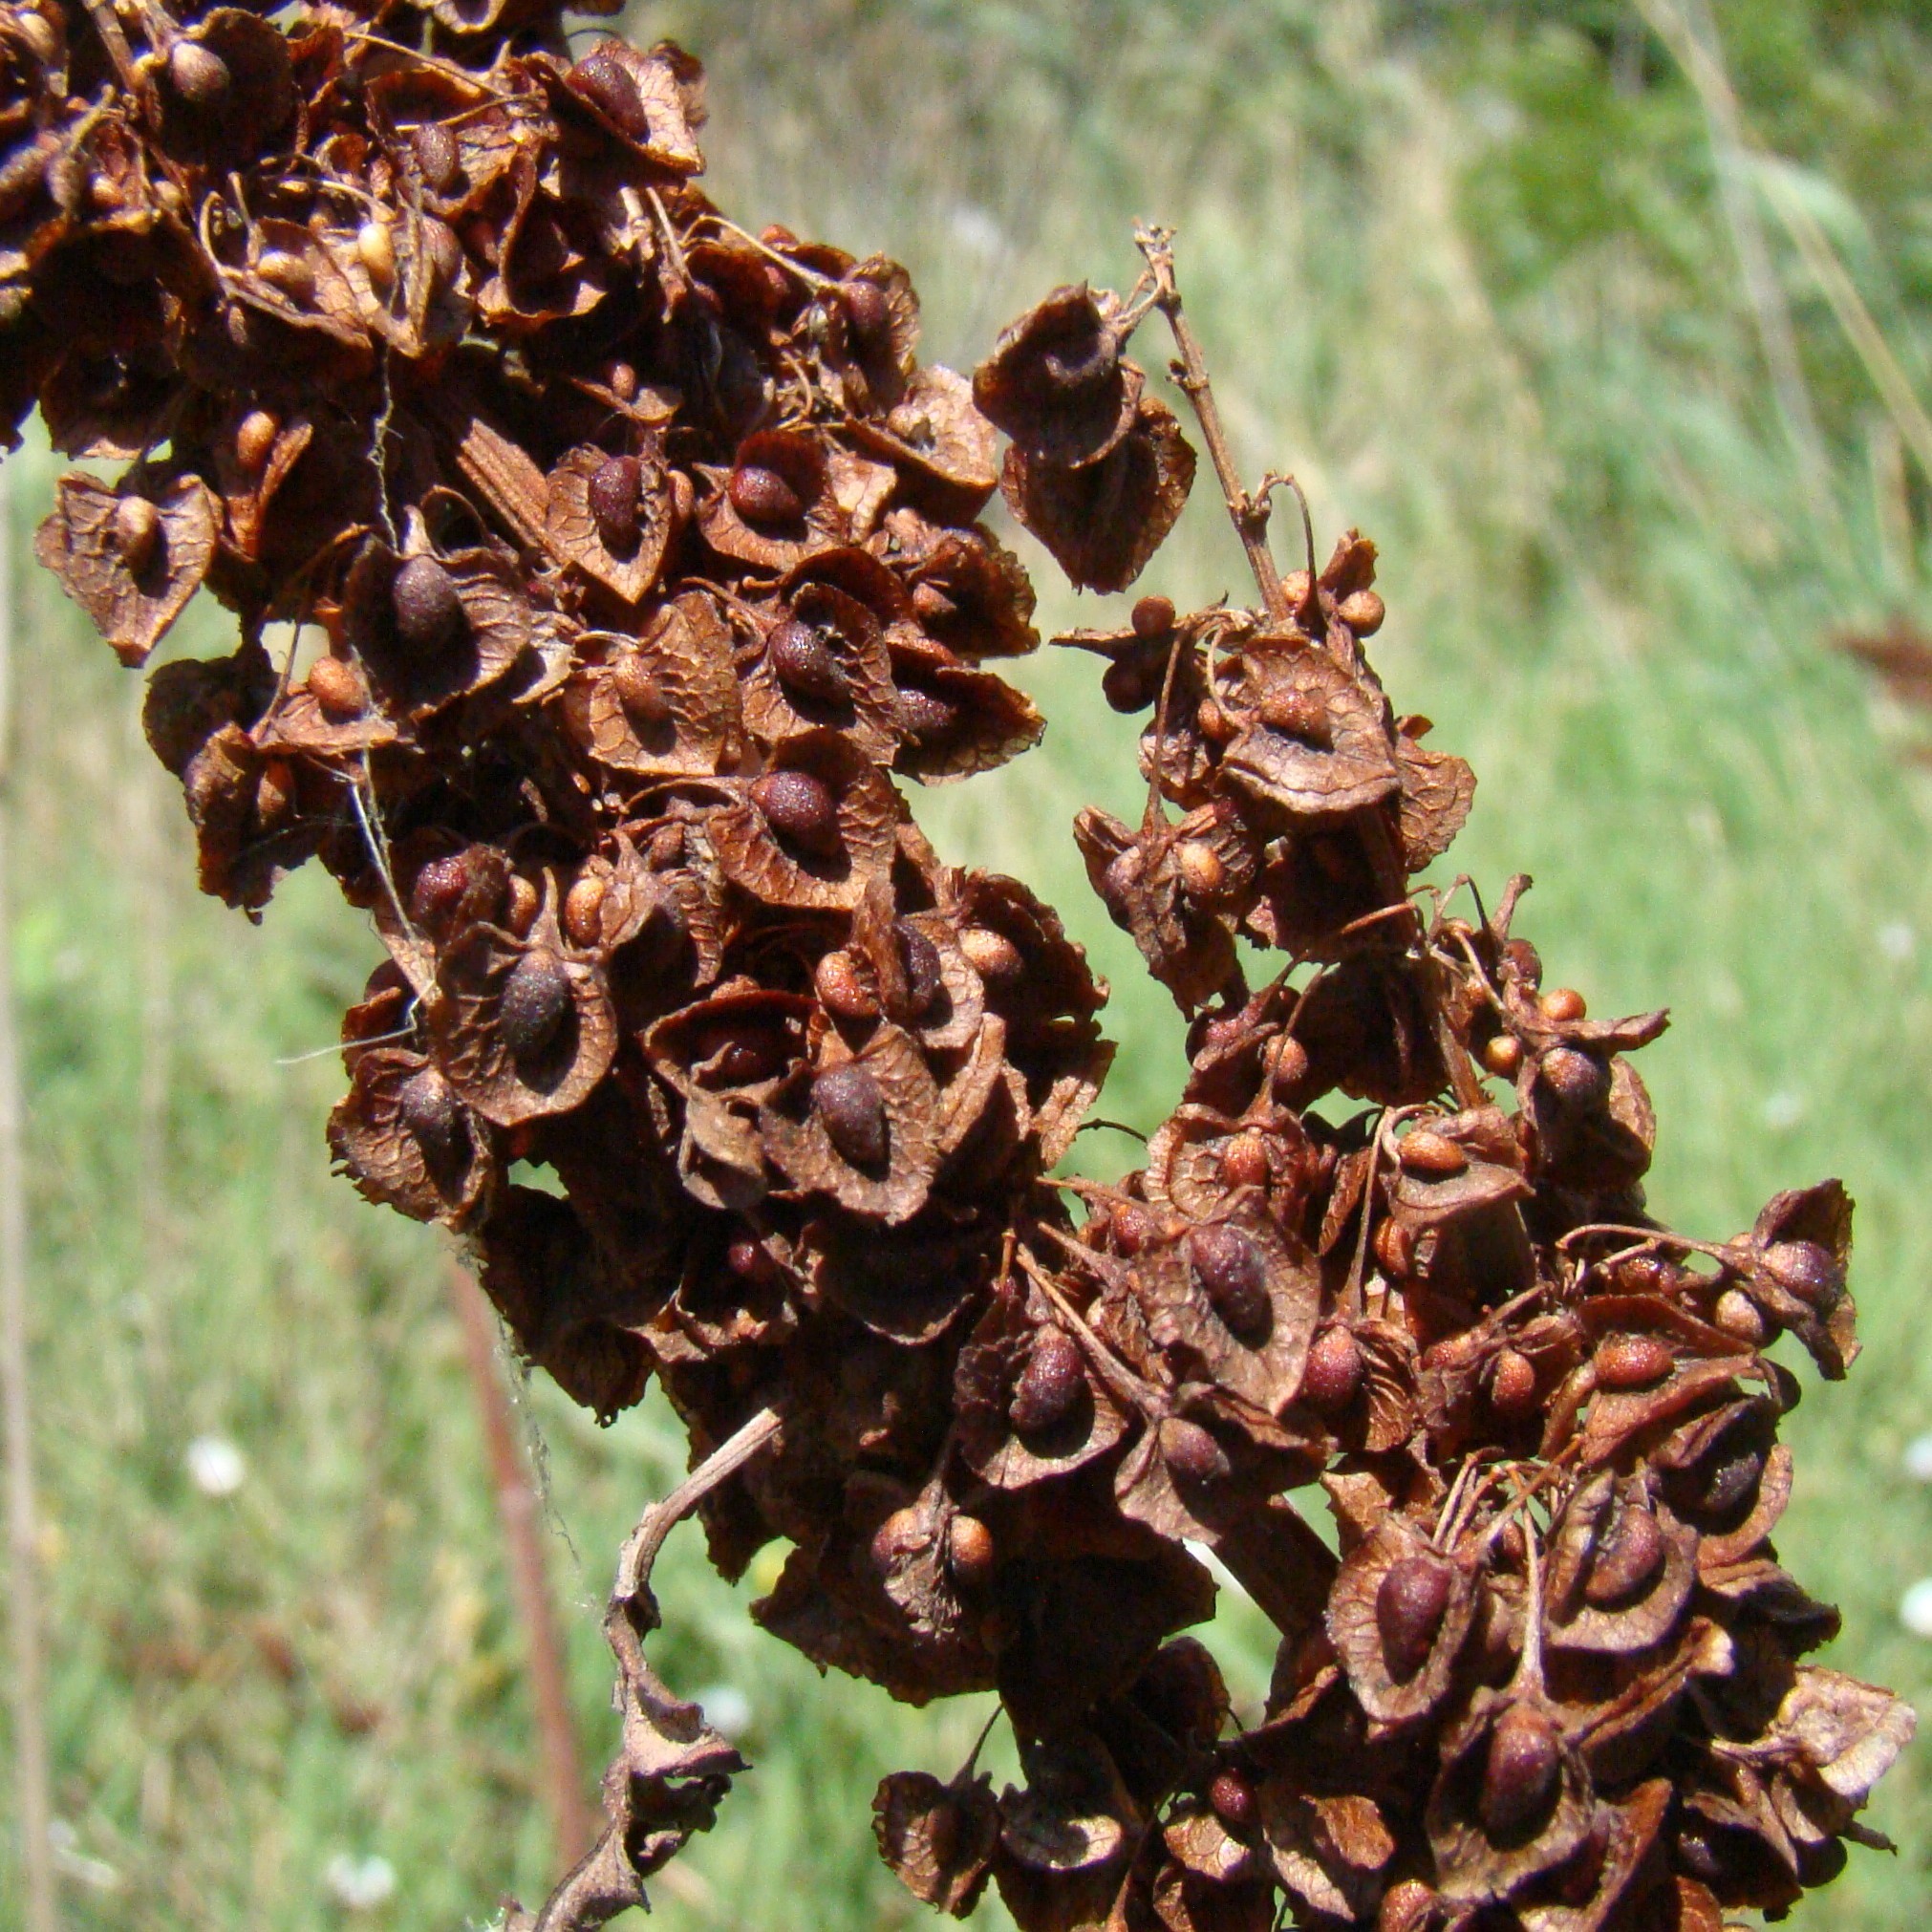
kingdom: Plantae
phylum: Tracheophyta
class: Magnoliopsida
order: Caryophyllales
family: Polygonaceae
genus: Rumex
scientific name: Rumex crispus
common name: Curled dock
